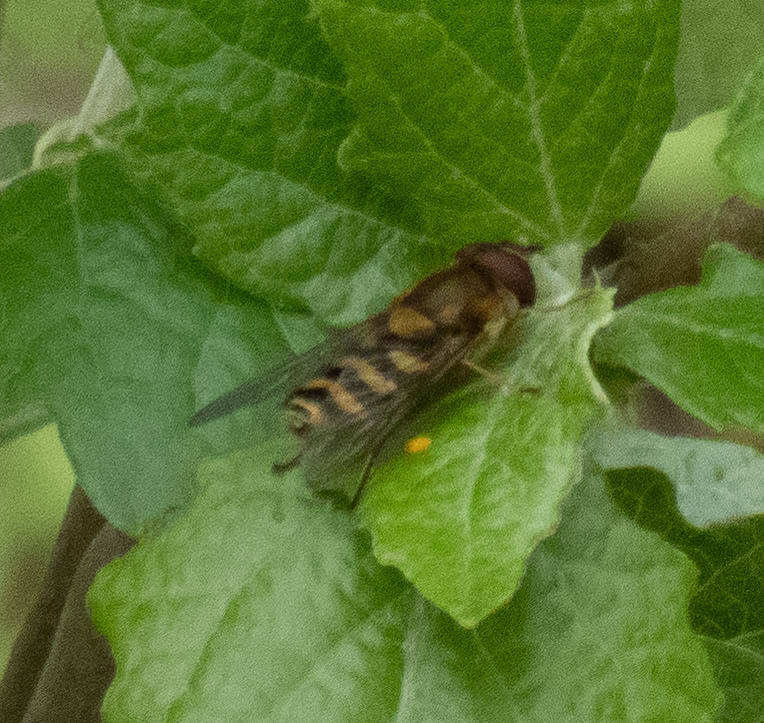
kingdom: Animalia
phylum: Arthropoda
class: Insecta
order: Diptera
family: Syrphidae
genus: Syrphus
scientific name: Syrphus
